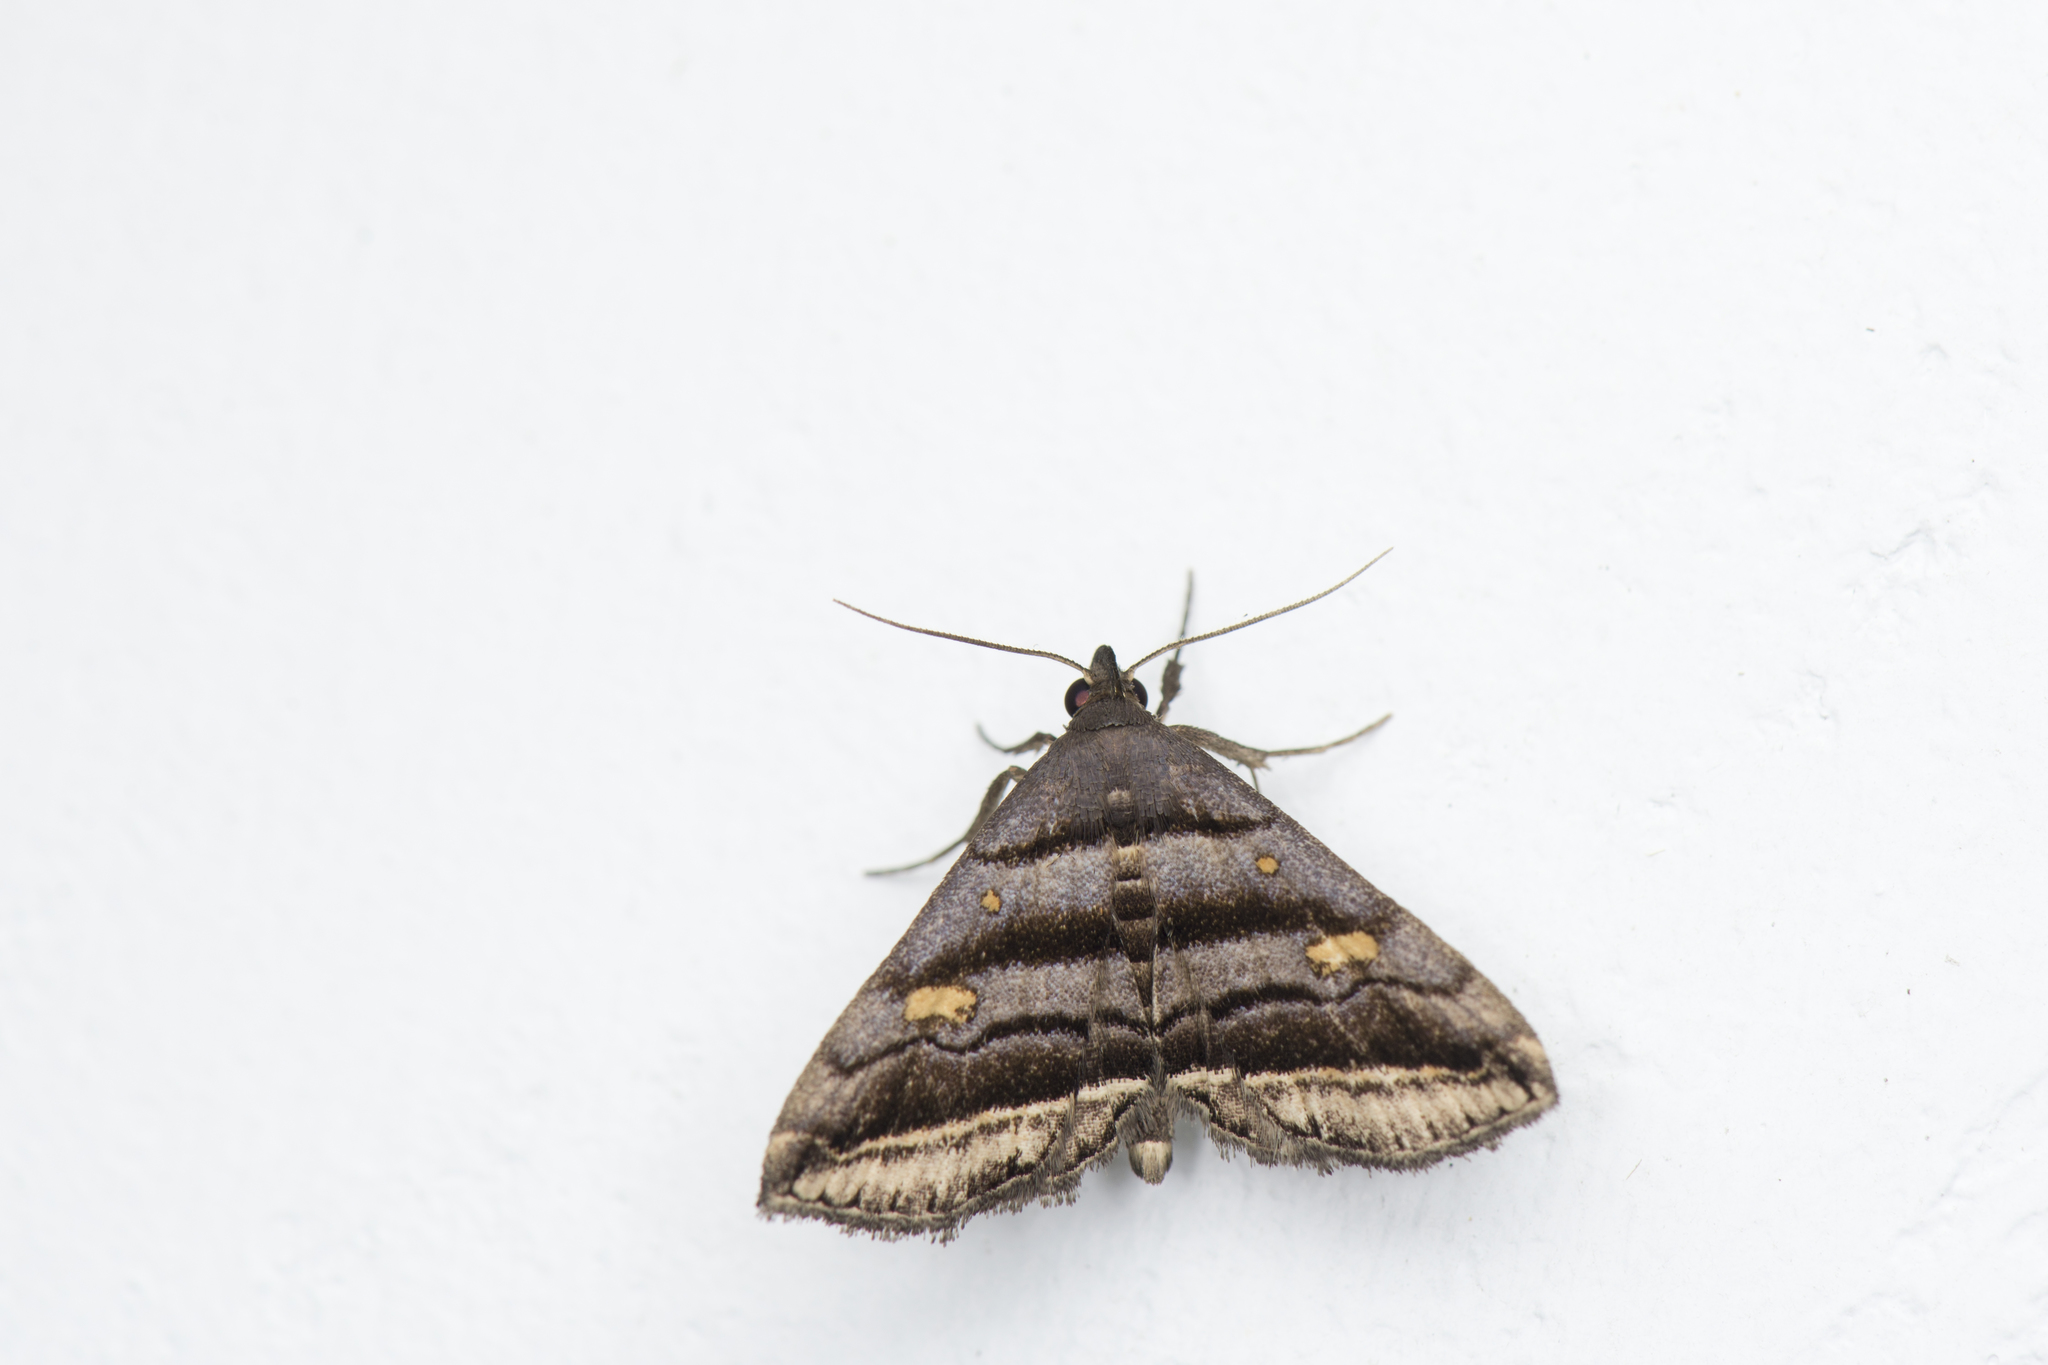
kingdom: Animalia
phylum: Arthropoda
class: Insecta
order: Lepidoptera
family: Erebidae
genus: Paracolax
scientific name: Paracolax pryeri
